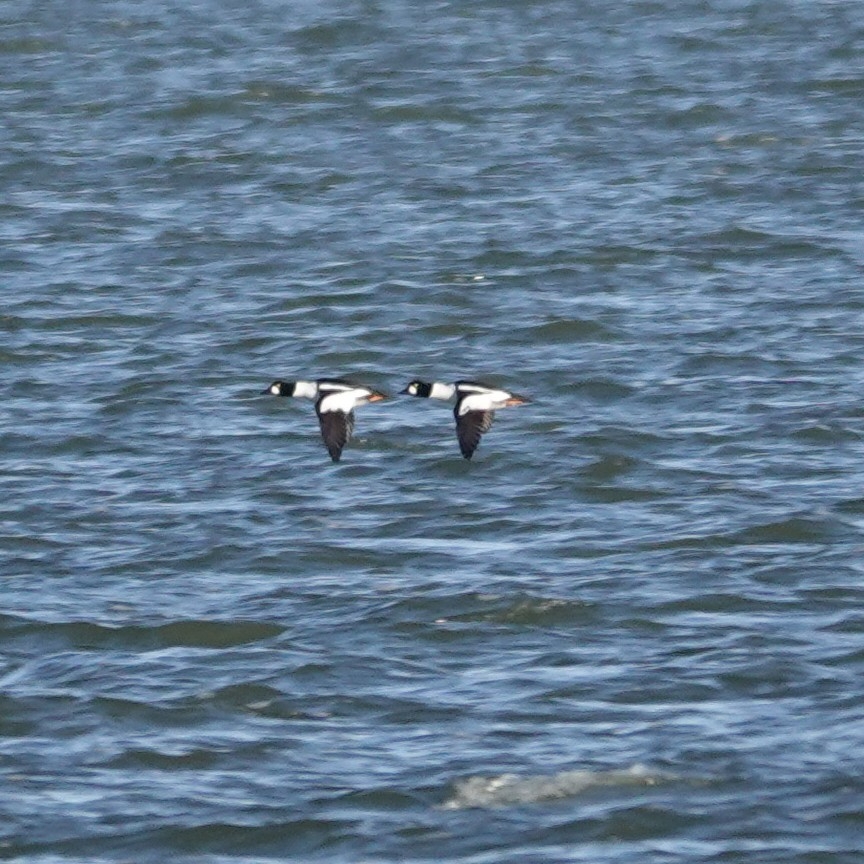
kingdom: Animalia
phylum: Chordata
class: Aves
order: Anseriformes
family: Anatidae
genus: Bucephala
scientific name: Bucephala clangula
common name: Common goldeneye
